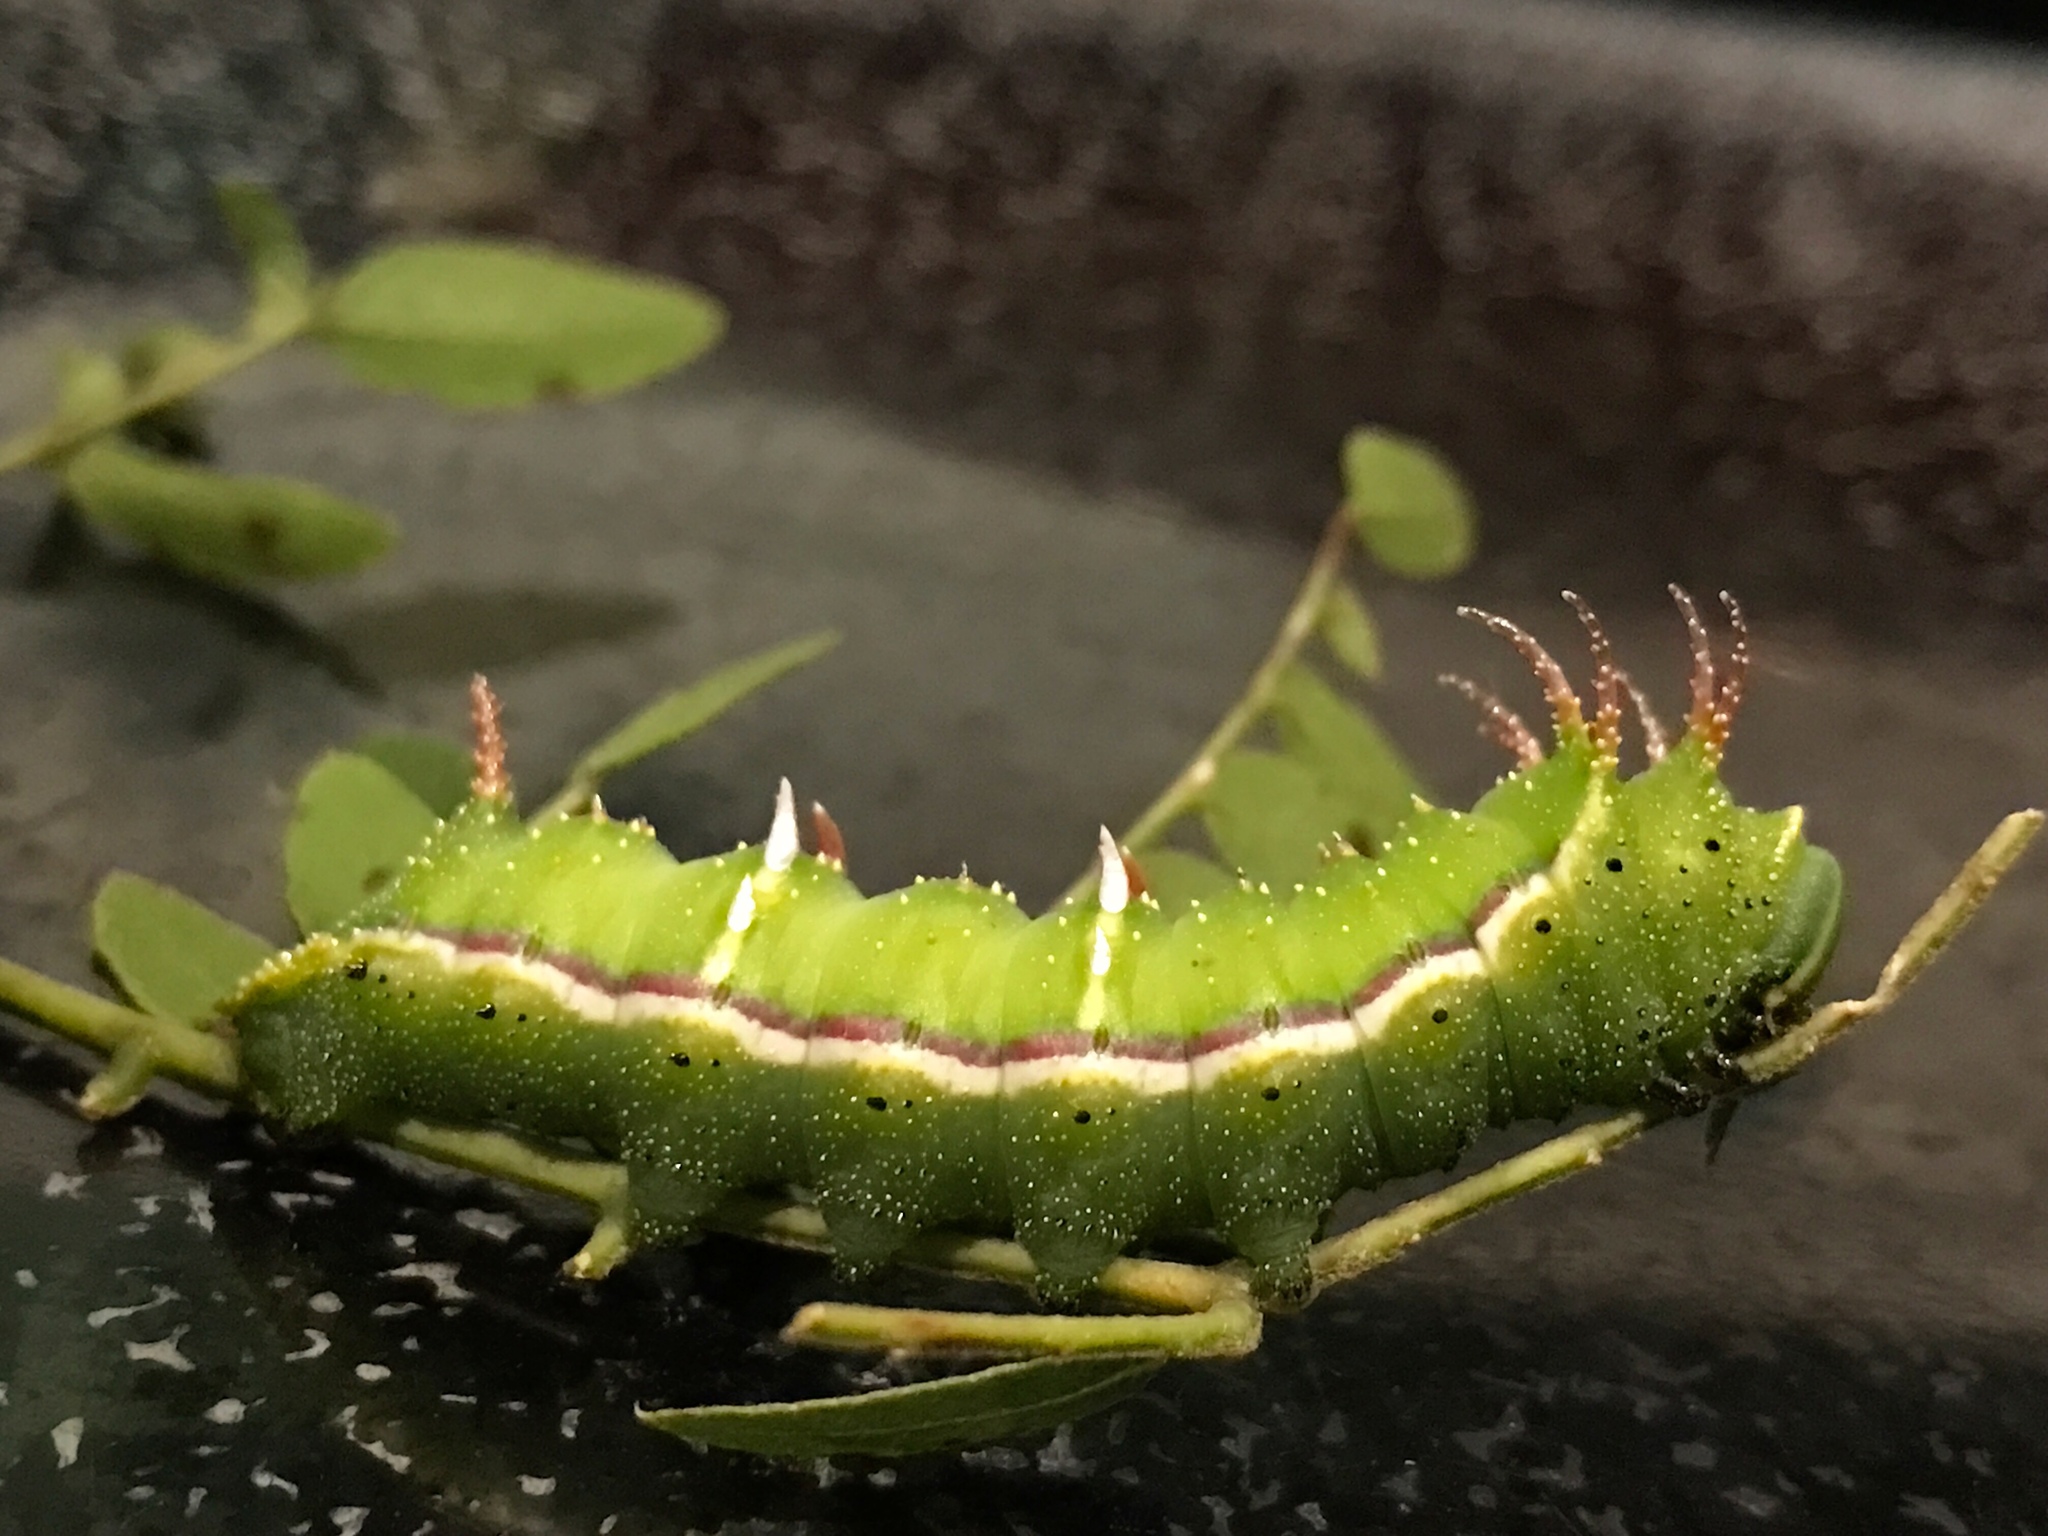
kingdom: Animalia
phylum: Arthropoda
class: Insecta
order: Lepidoptera
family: Saturniidae
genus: Syssphinx
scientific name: Syssphinx bicolor
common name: Honey locust moth
